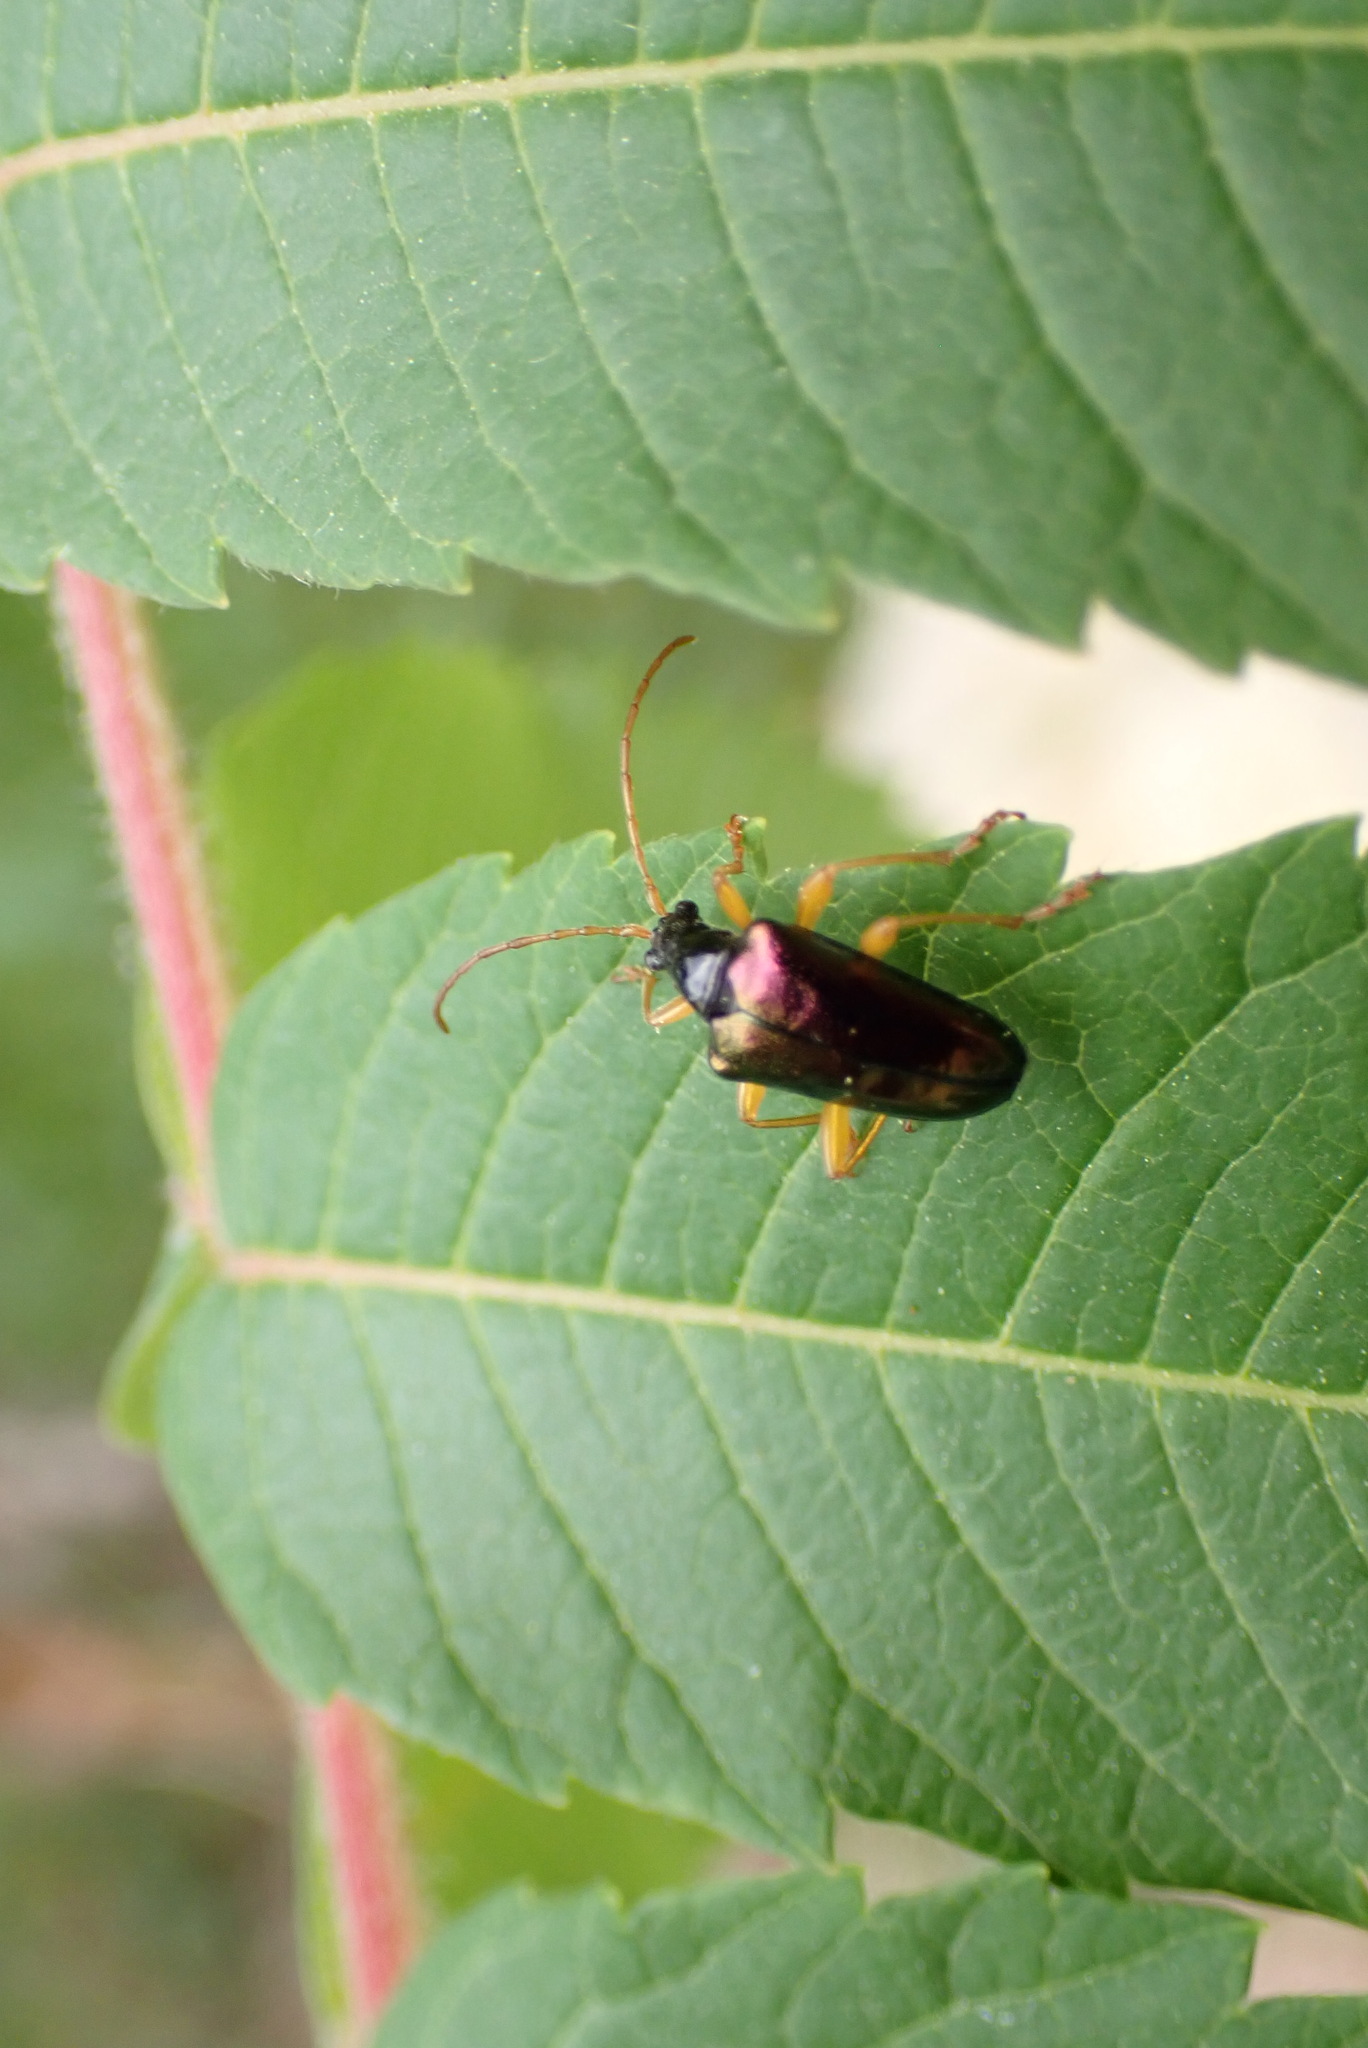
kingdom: Animalia
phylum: Arthropoda
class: Insecta
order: Coleoptera
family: Cerambycidae
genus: Gaurotes
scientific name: Gaurotes cyanipennis
